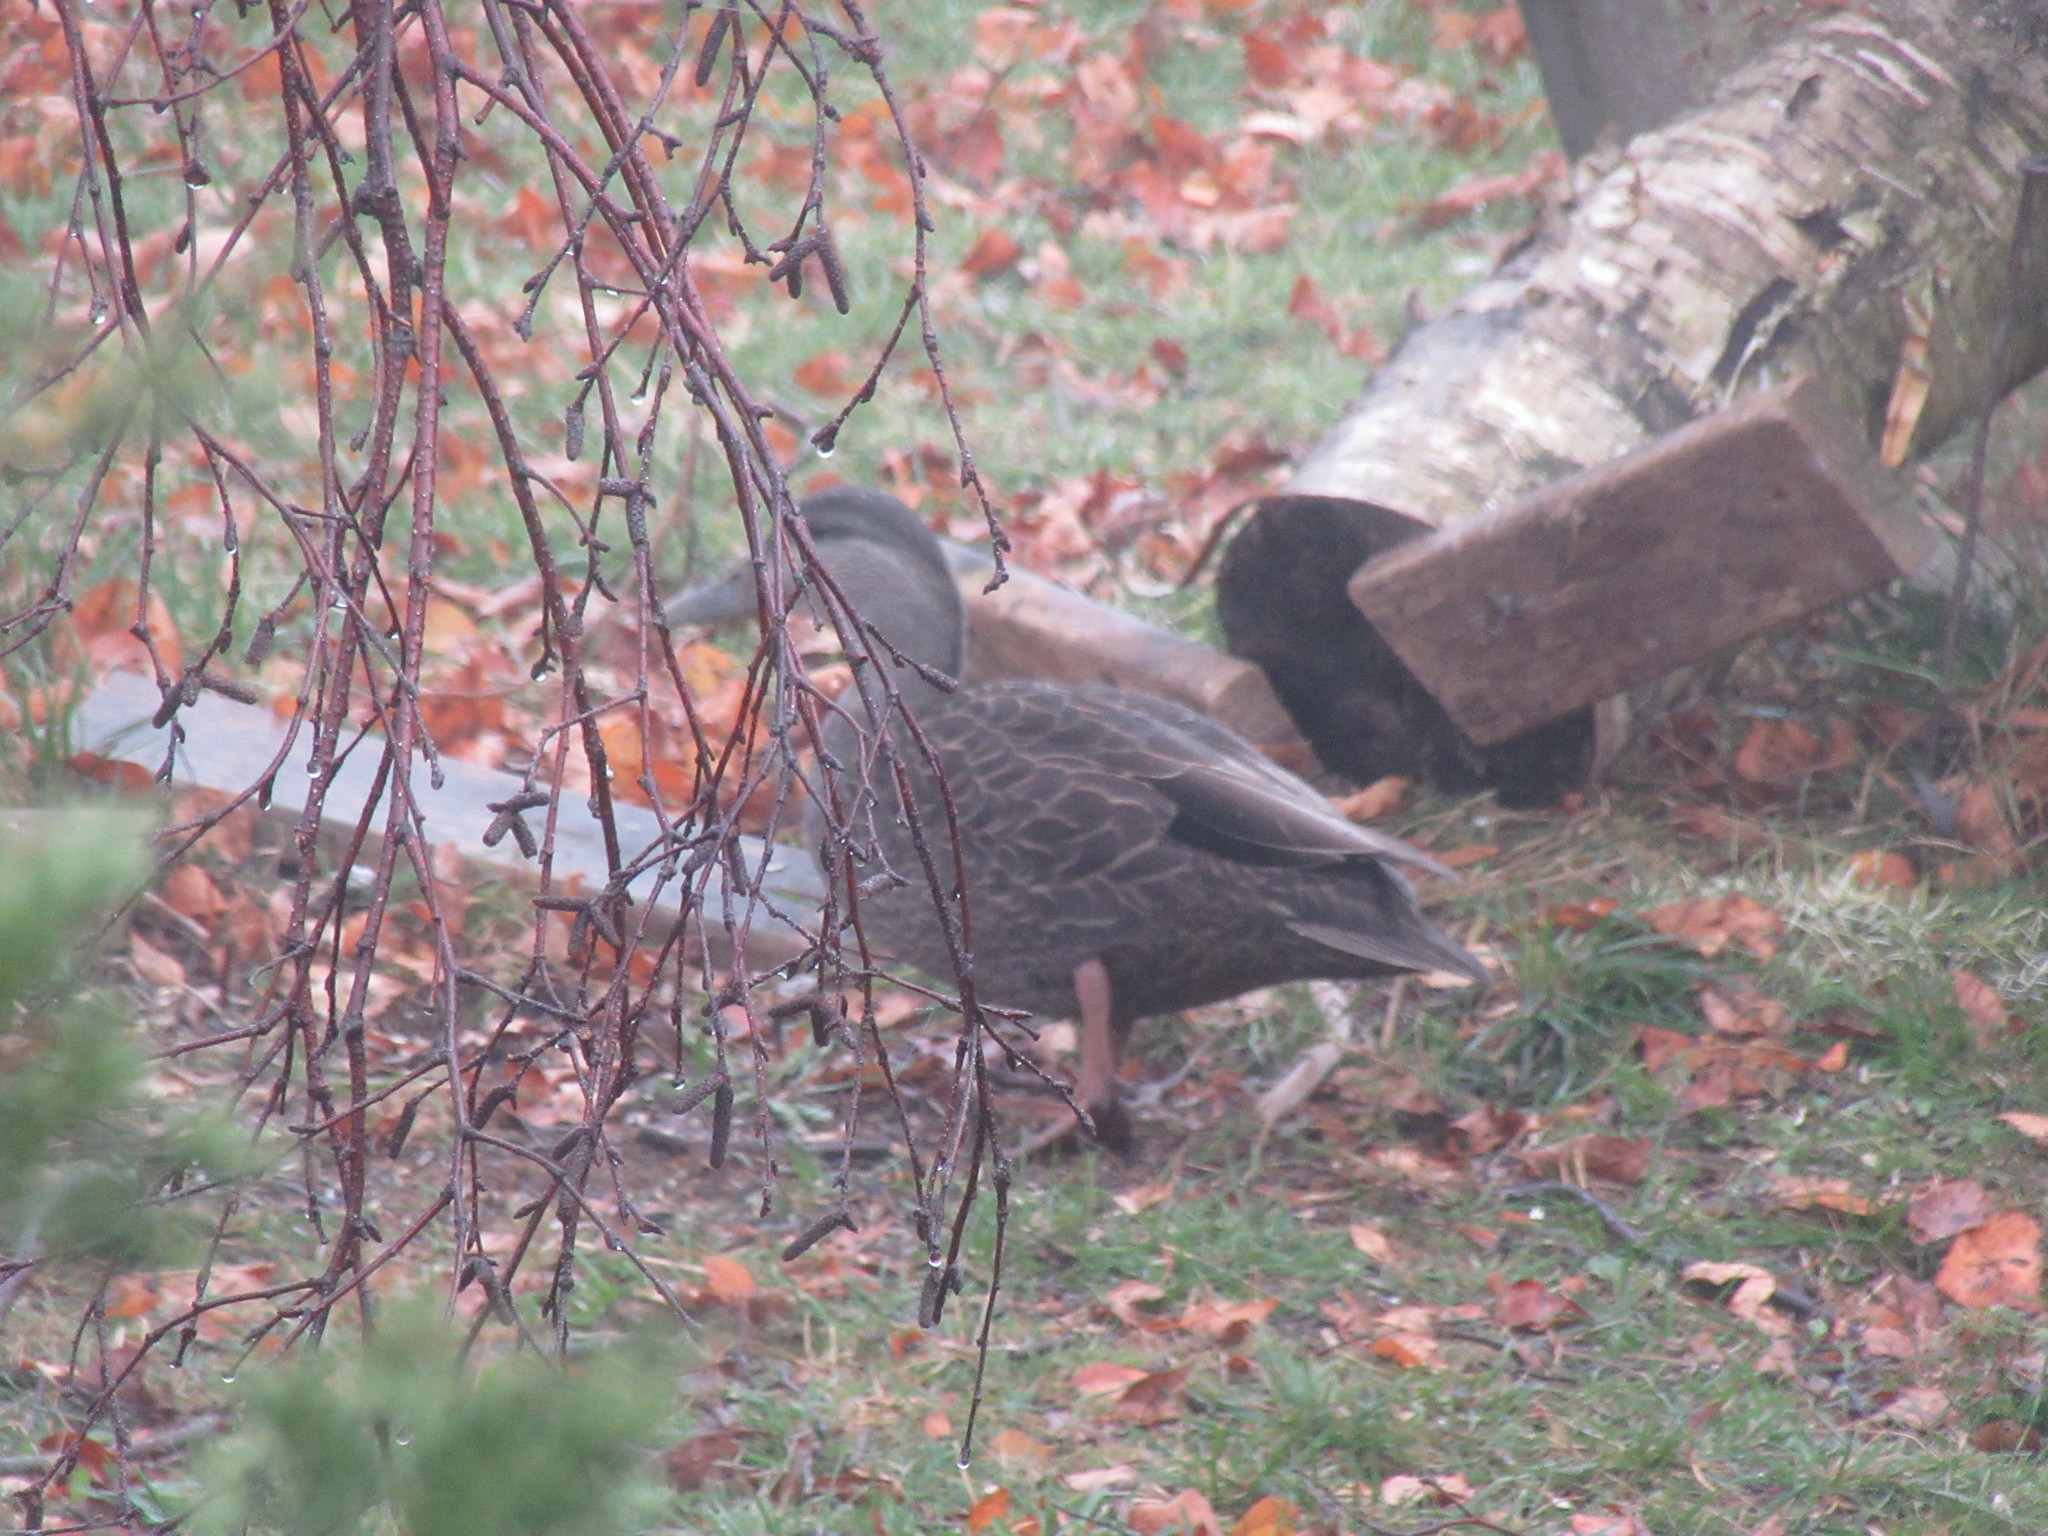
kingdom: Animalia
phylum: Chordata
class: Aves
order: Anseriformes
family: Anatidae
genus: Anas
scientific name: Anas rubripes
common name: American black duck
